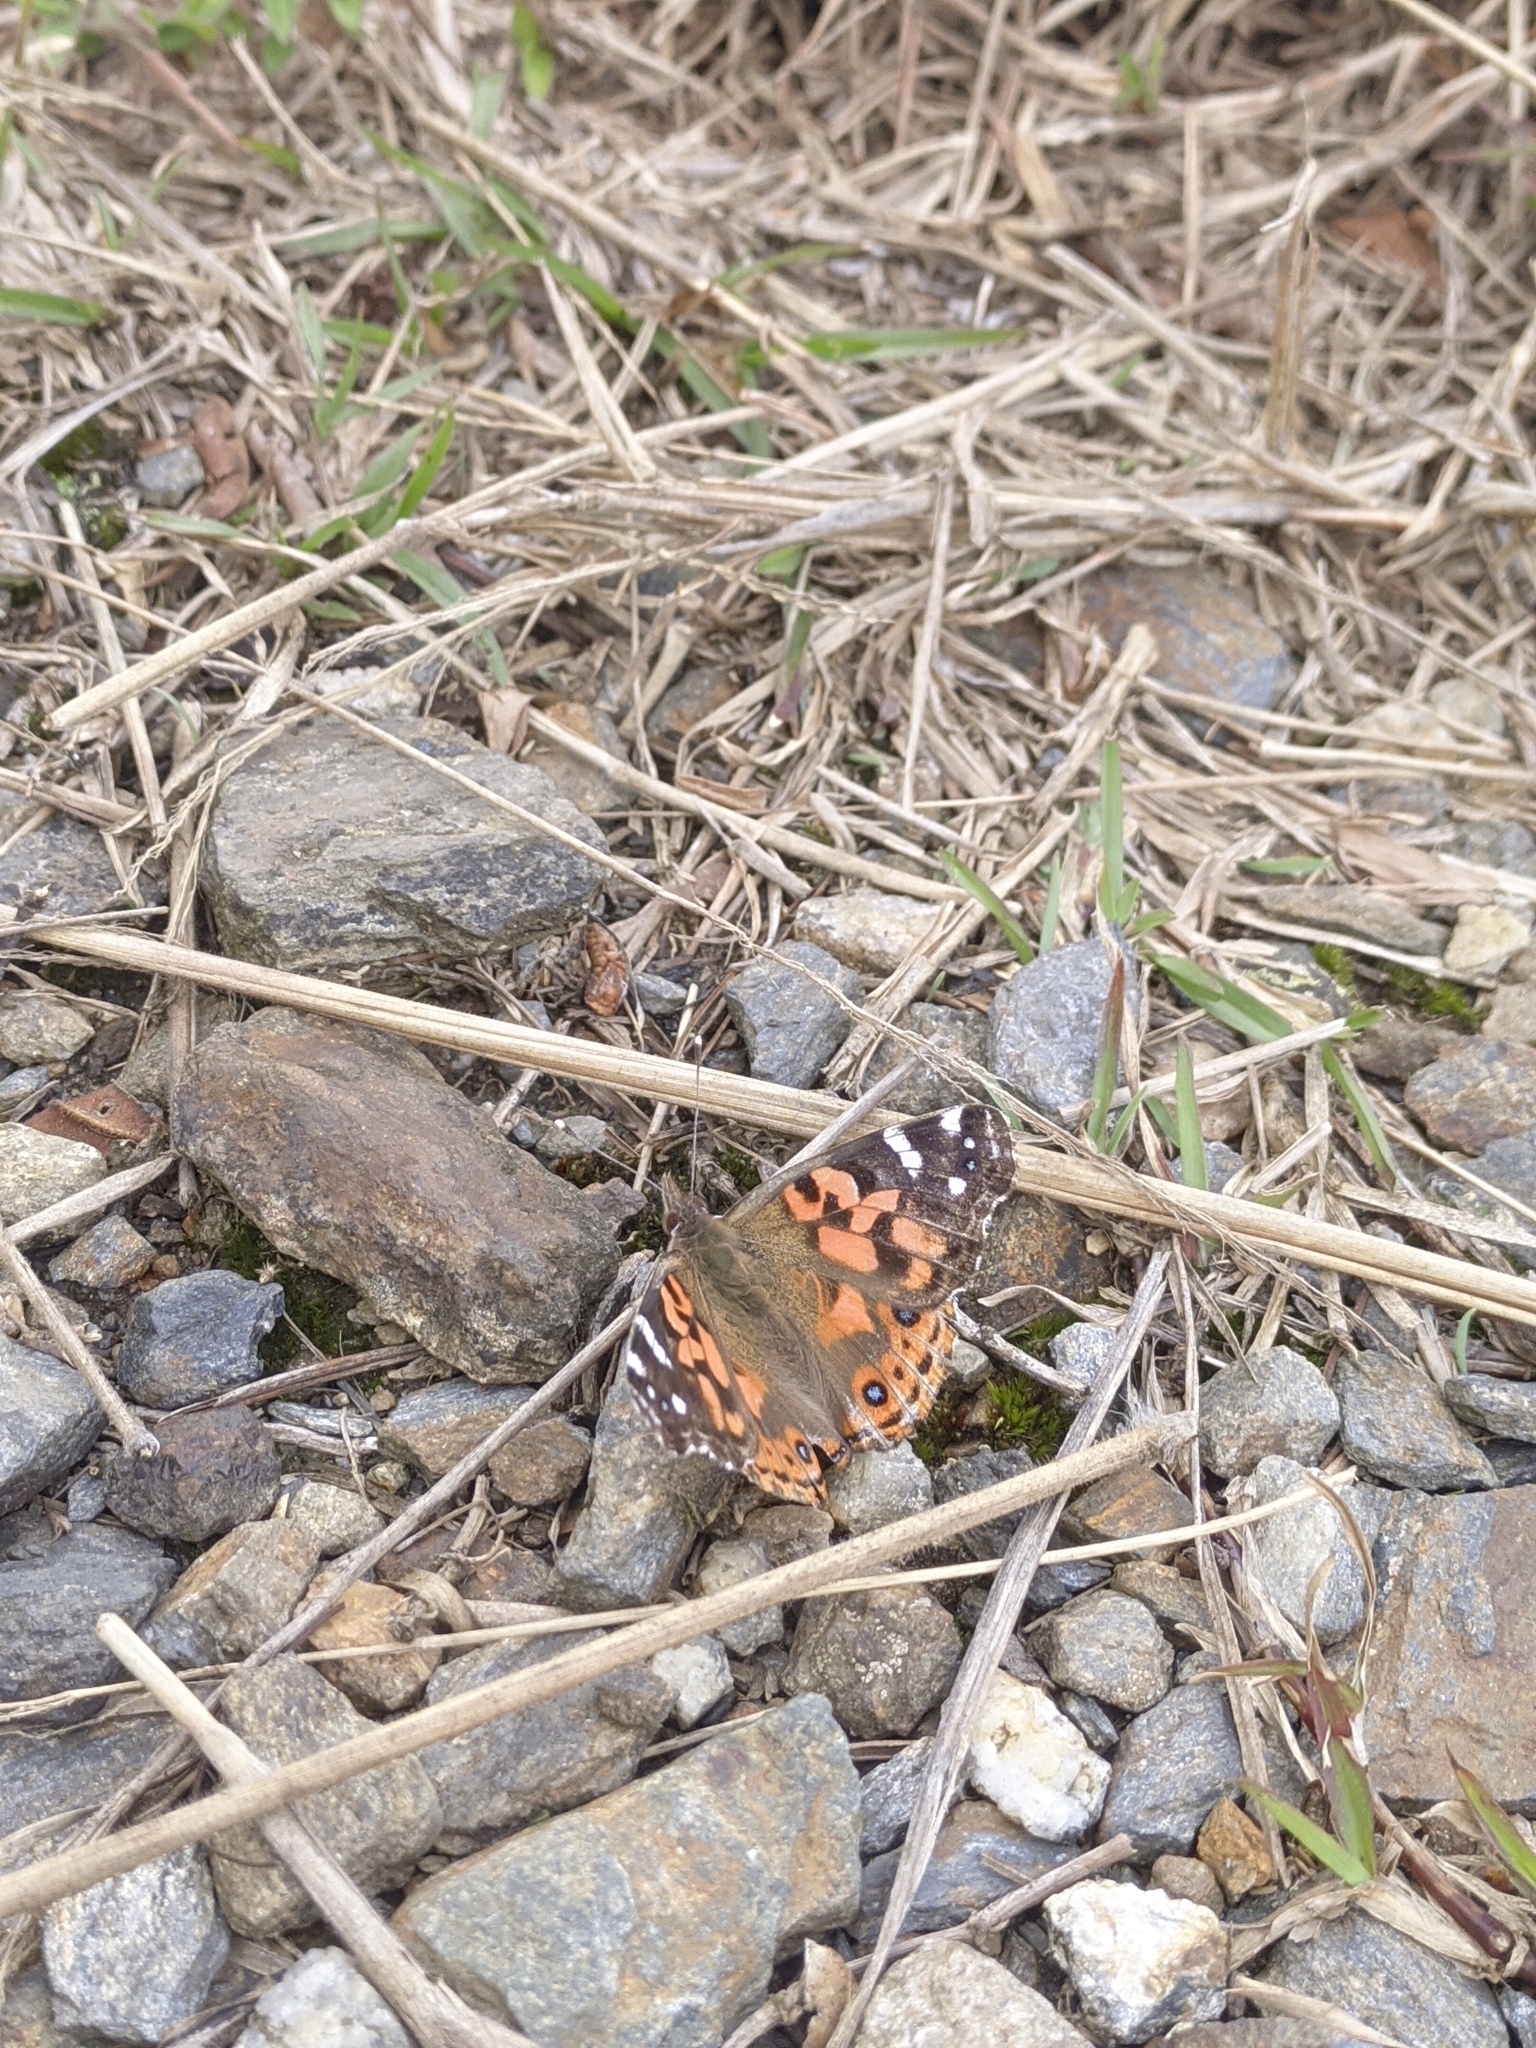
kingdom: Animalia
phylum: Arthropoda
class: Insecta
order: Lepidoptera
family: Nymphalidae
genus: Vanessa
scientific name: Vanessa braziliensis
